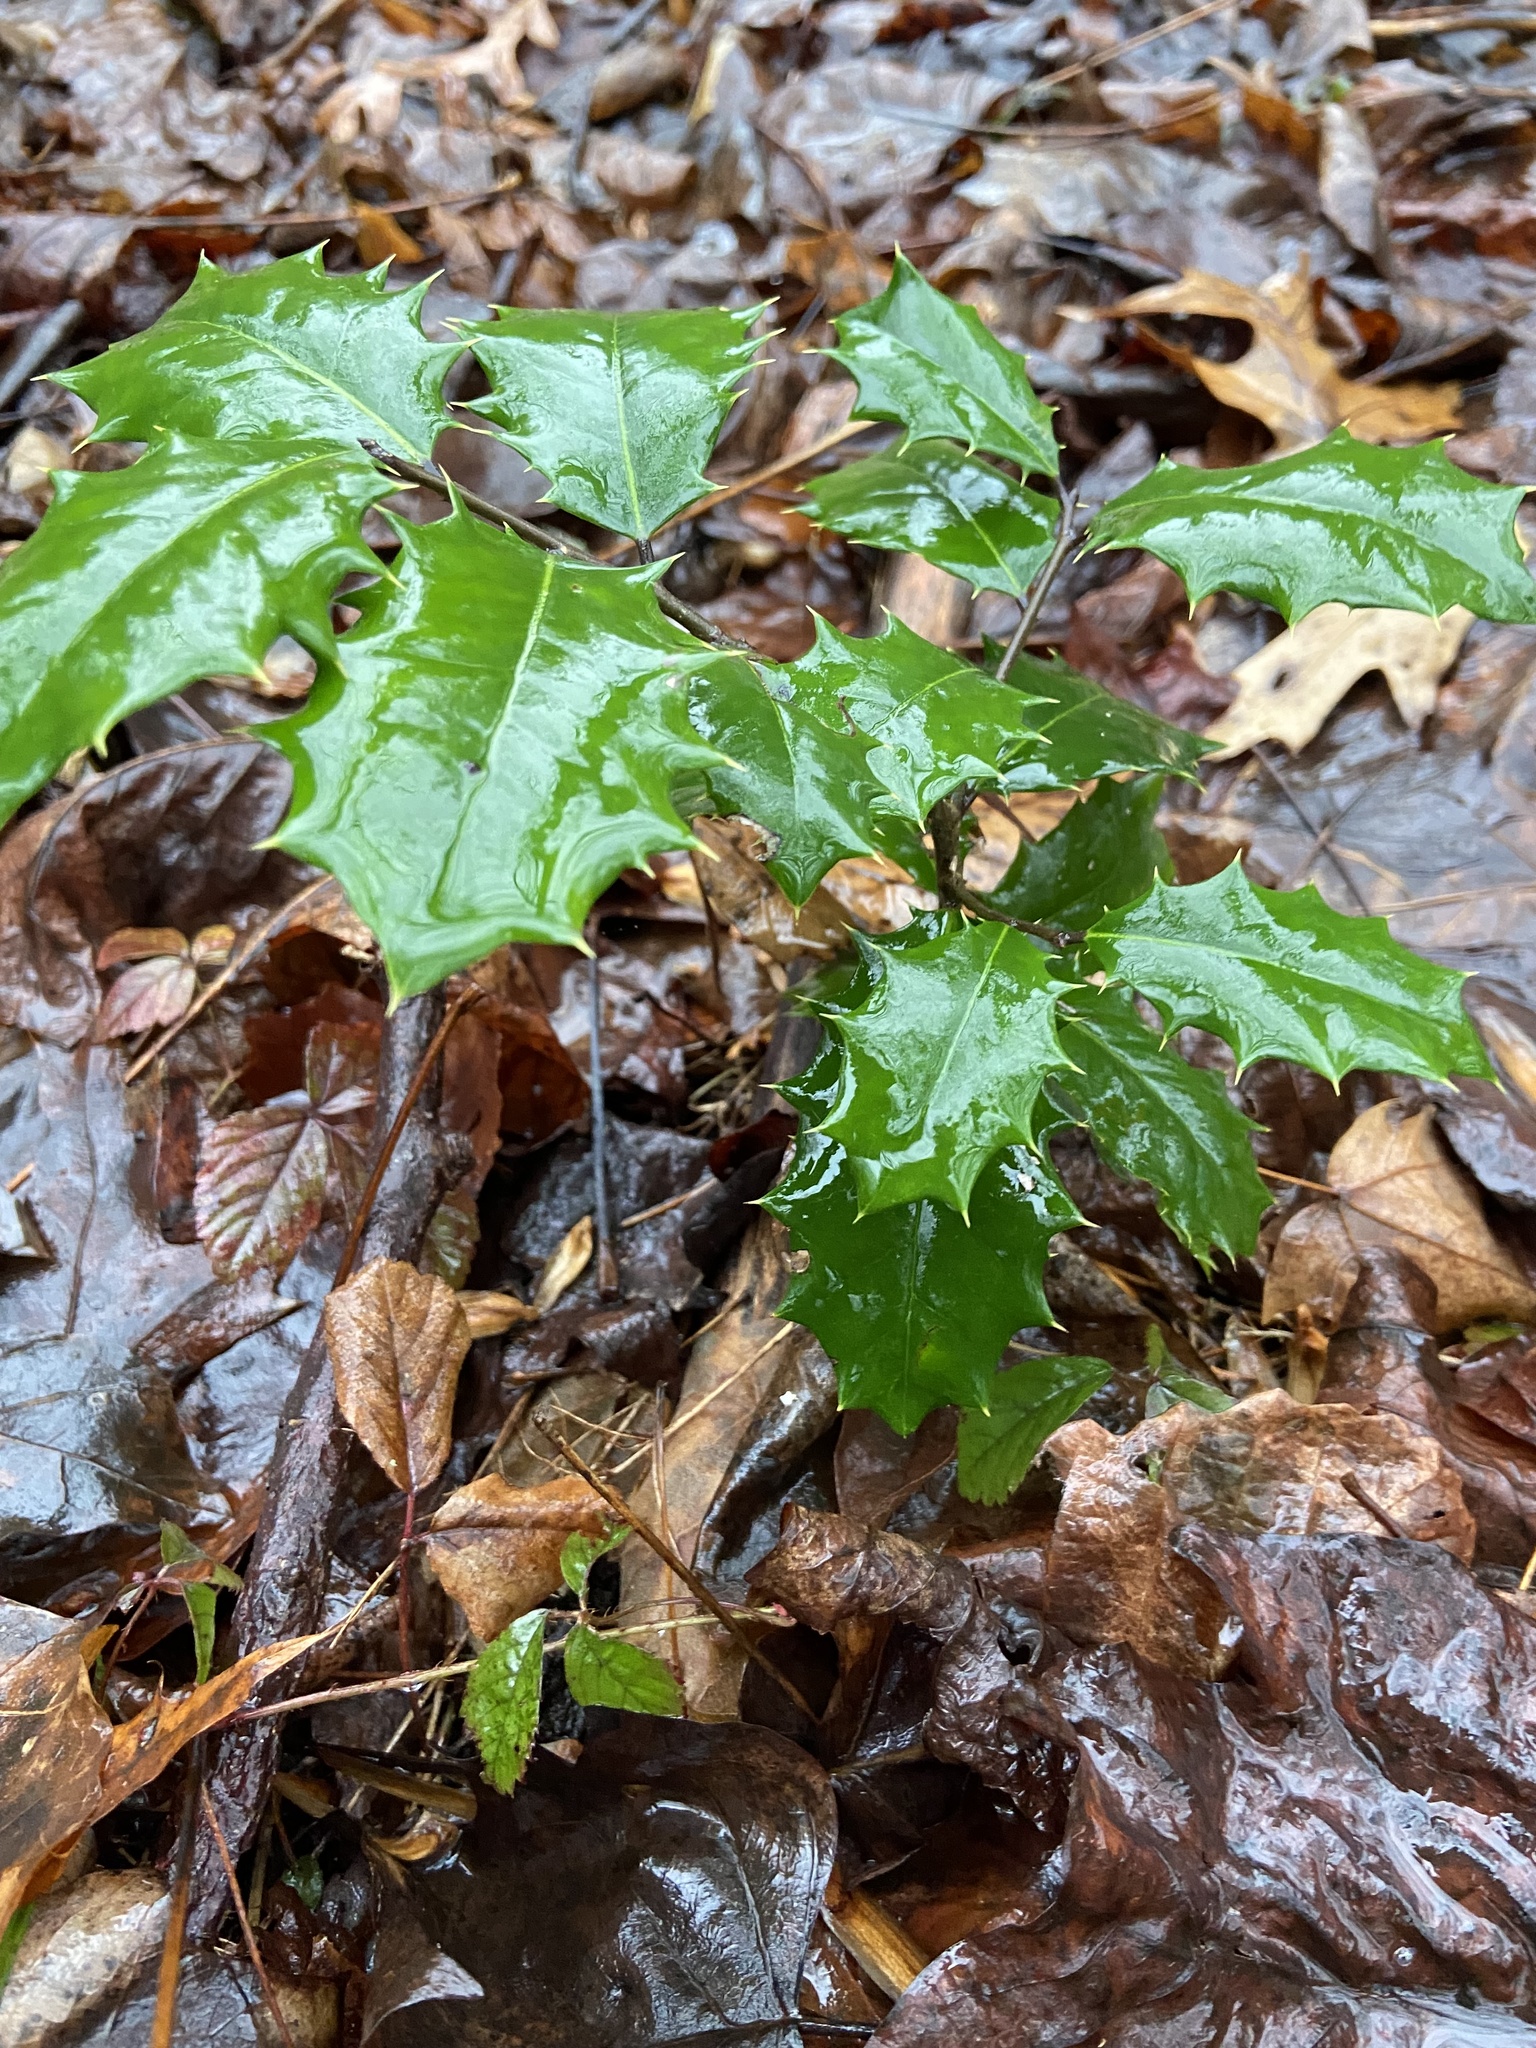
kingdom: Plantae
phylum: Tracheophyta
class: Magnoliopsida
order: Aquifoliales
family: Aquifoliaceae
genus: Ilex
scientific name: Ilex opaca
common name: American holly
